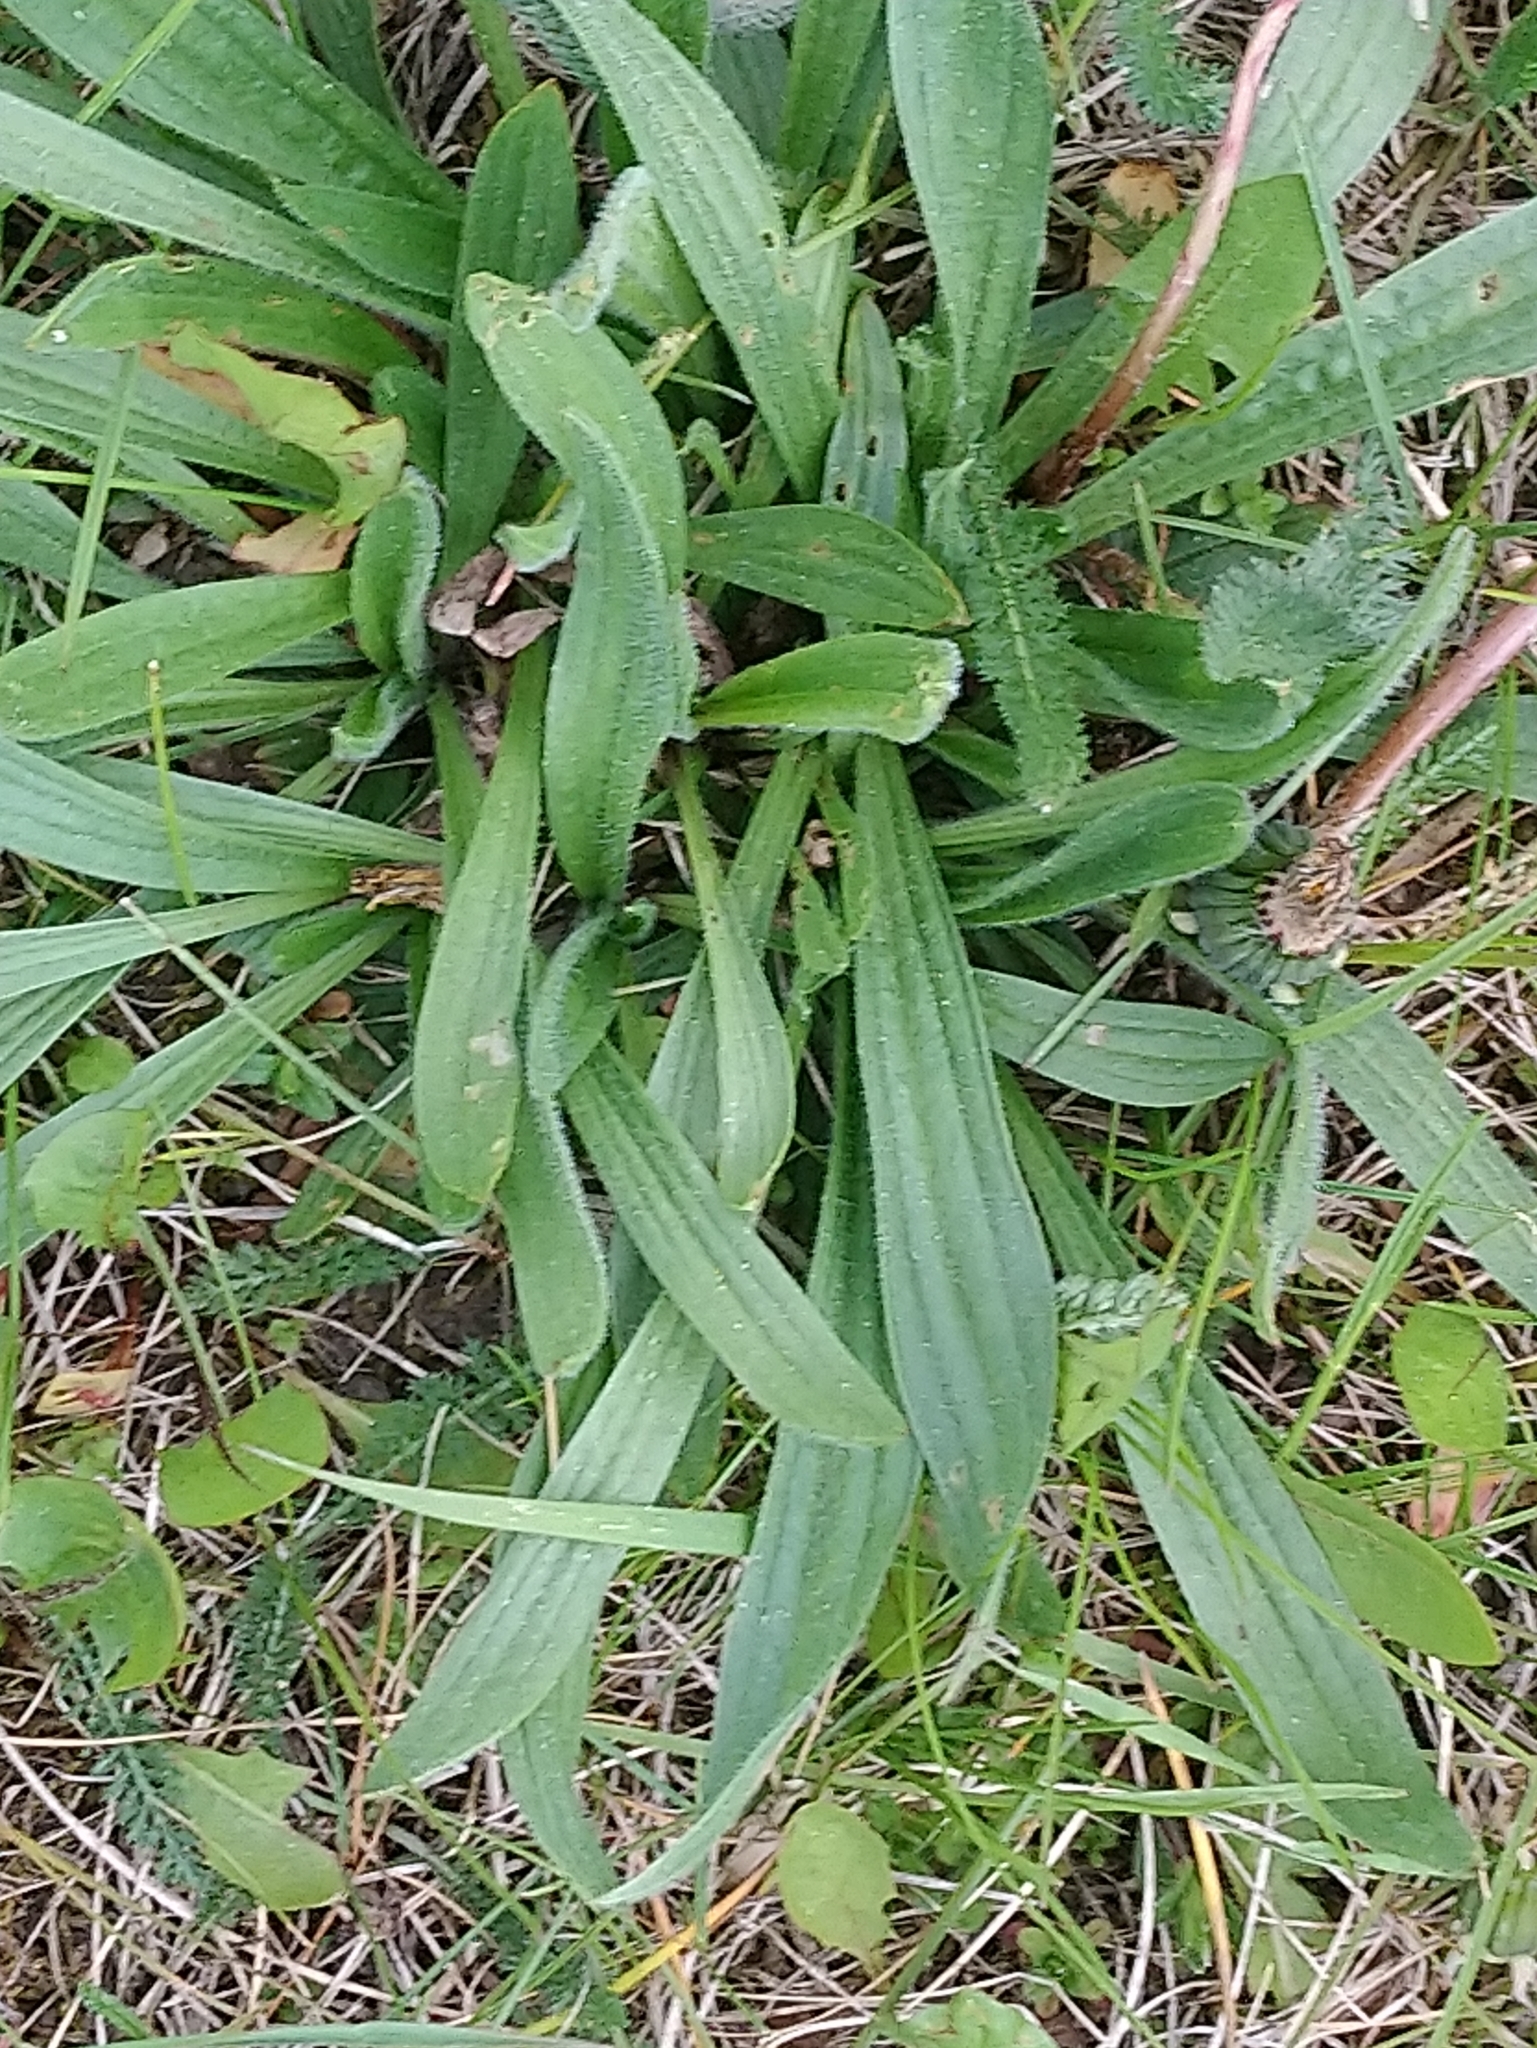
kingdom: Plantae
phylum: Tracheophyta
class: Magnoliopsida
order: Lamiales
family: Plantaginaceae
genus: Plantago
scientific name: Plantago lanceolata
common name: Ribwort plantain
